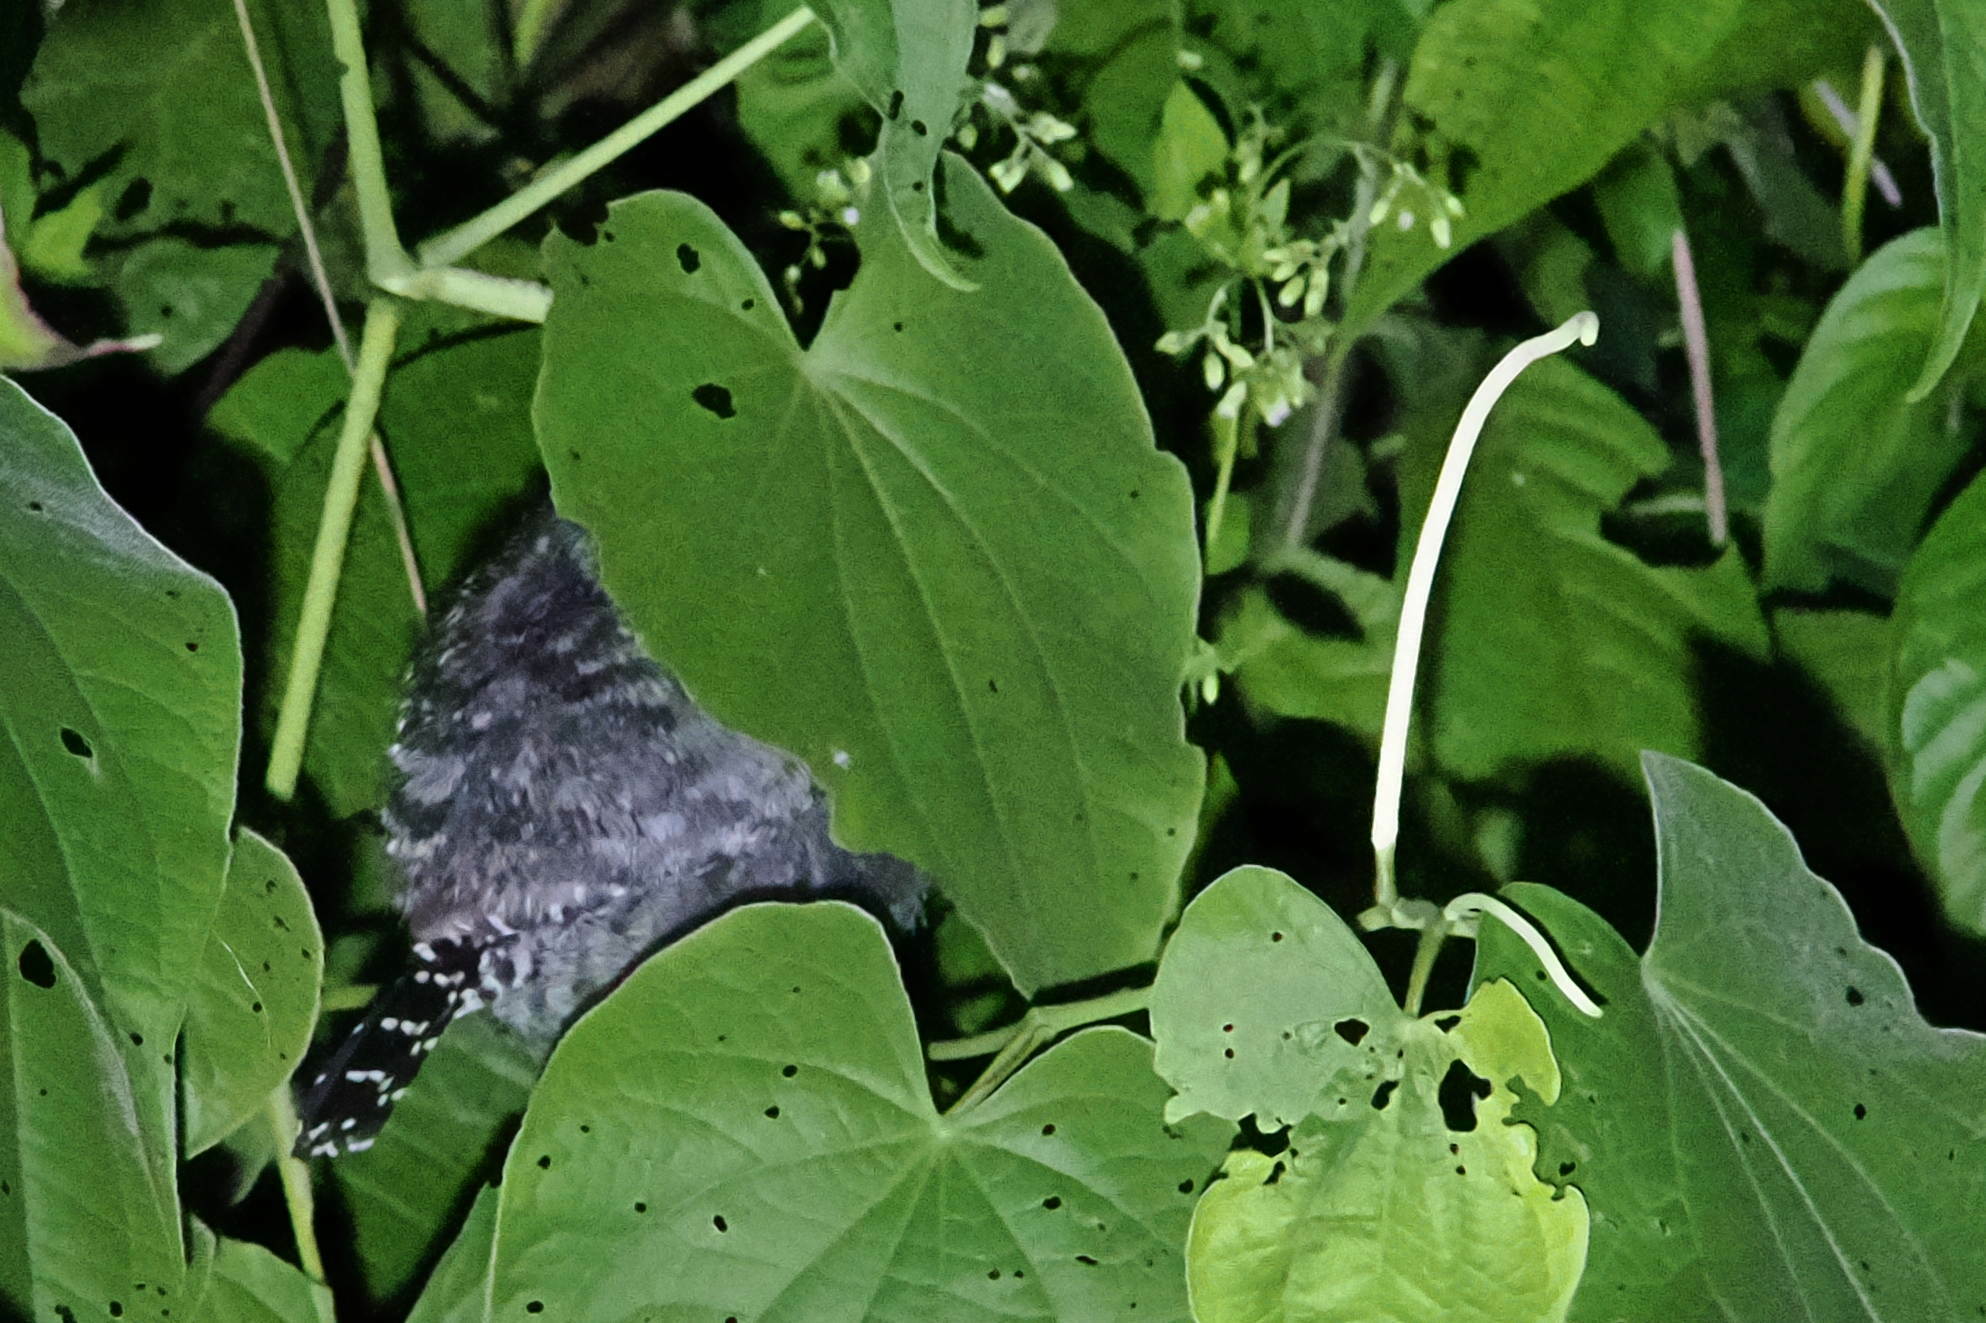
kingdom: Animalia
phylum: Chordata
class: Aves
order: Passeriformes
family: Thamnophilidae
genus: Thamnophilus
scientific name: Thamnophilus doliatus
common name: Barred antshrike
